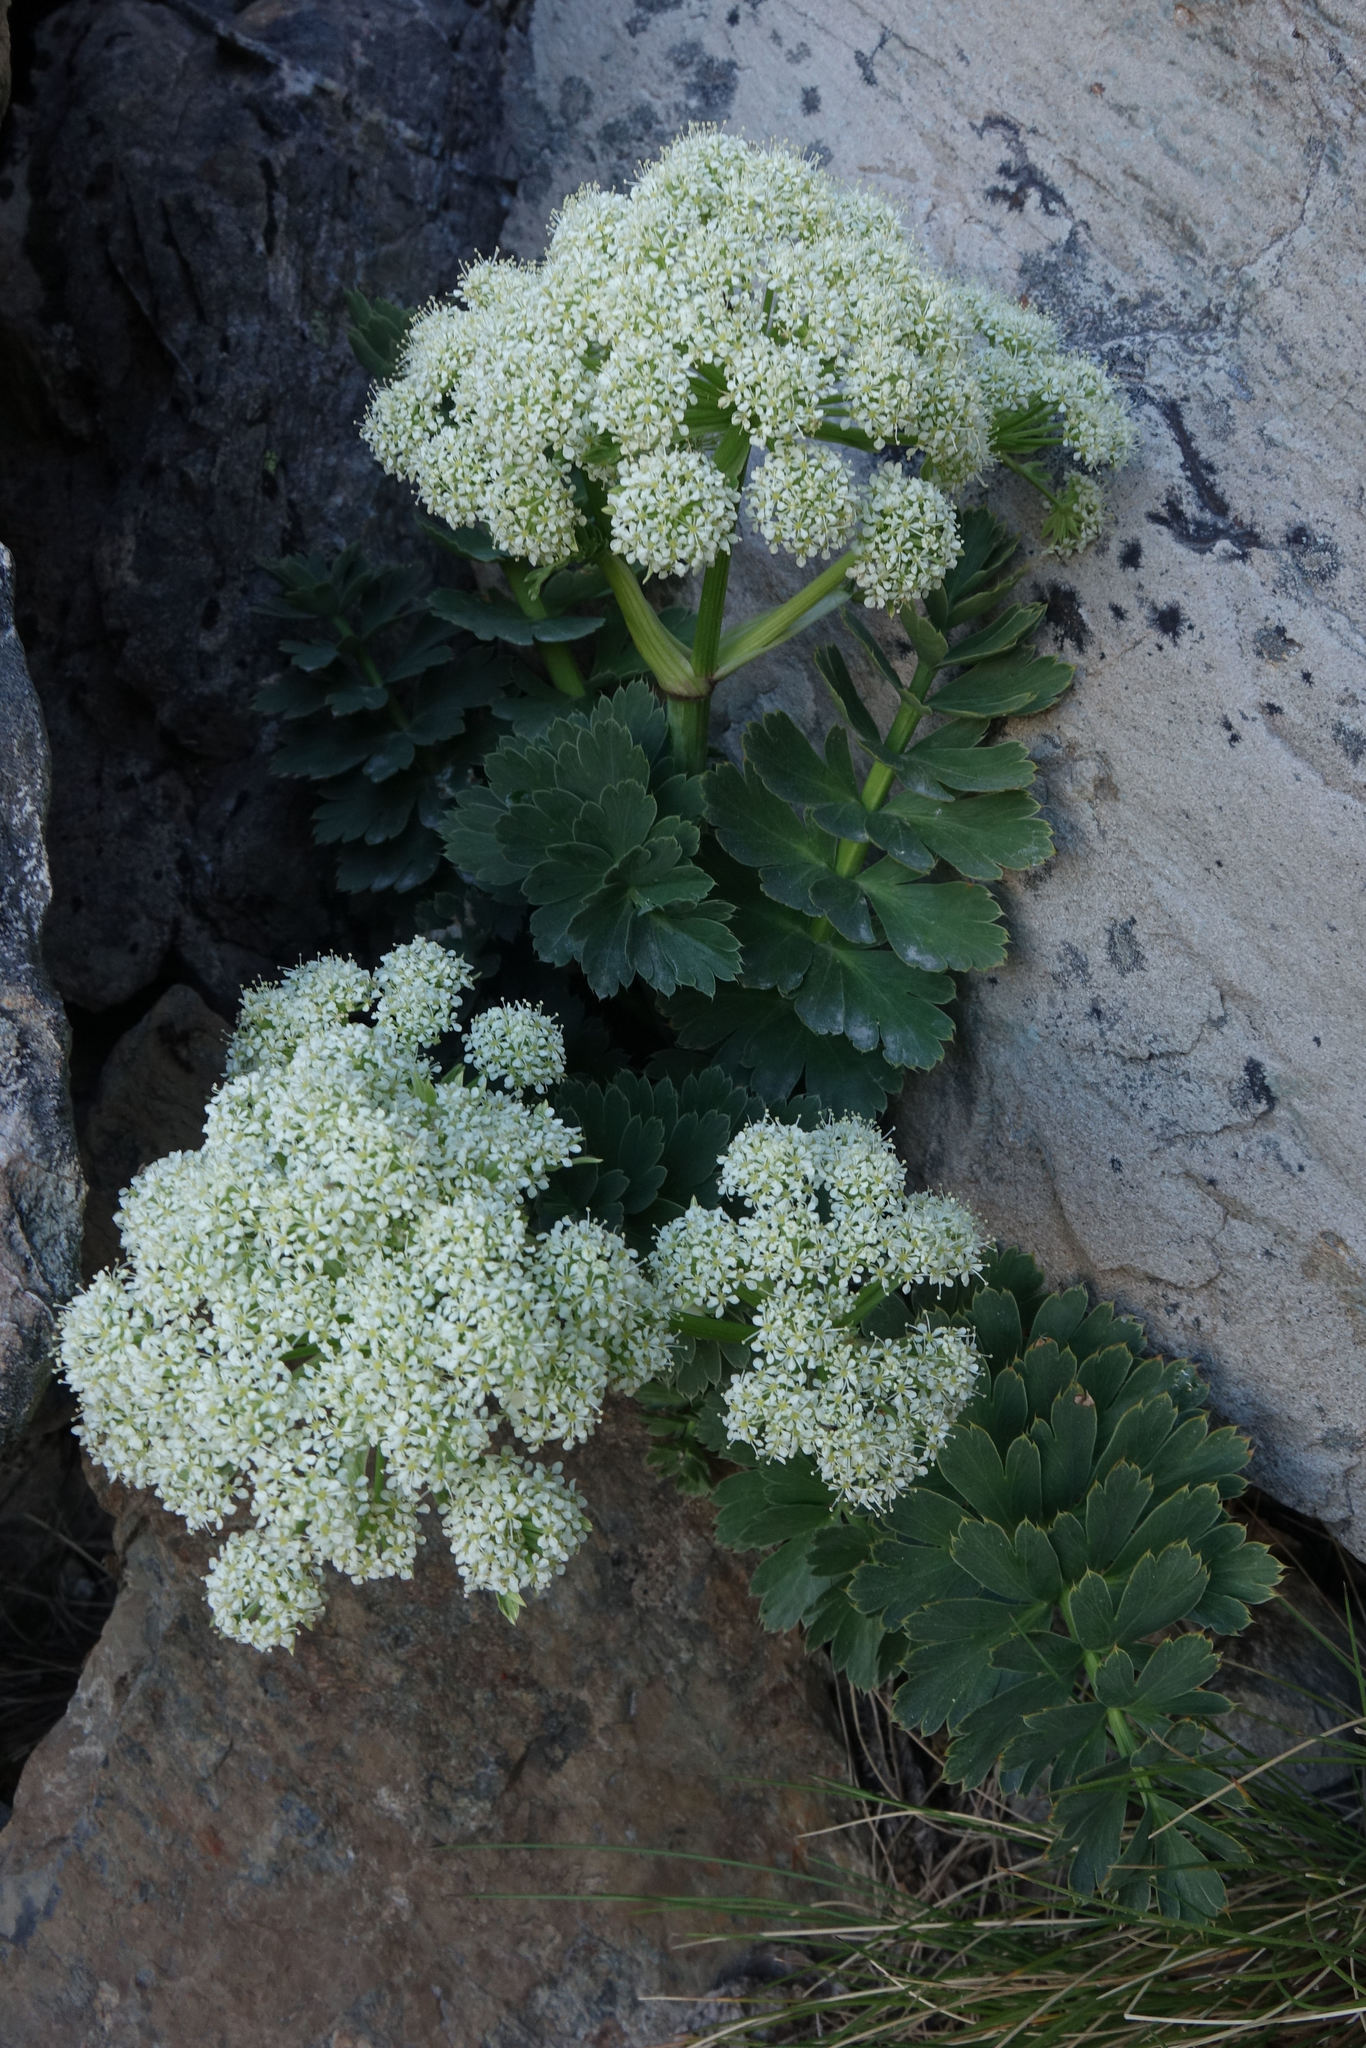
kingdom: Plantae
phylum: Tracheophyta
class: Magnoliopsida
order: Apiales
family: Apiaceae
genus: Anisotome
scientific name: Anisotome pilifera
